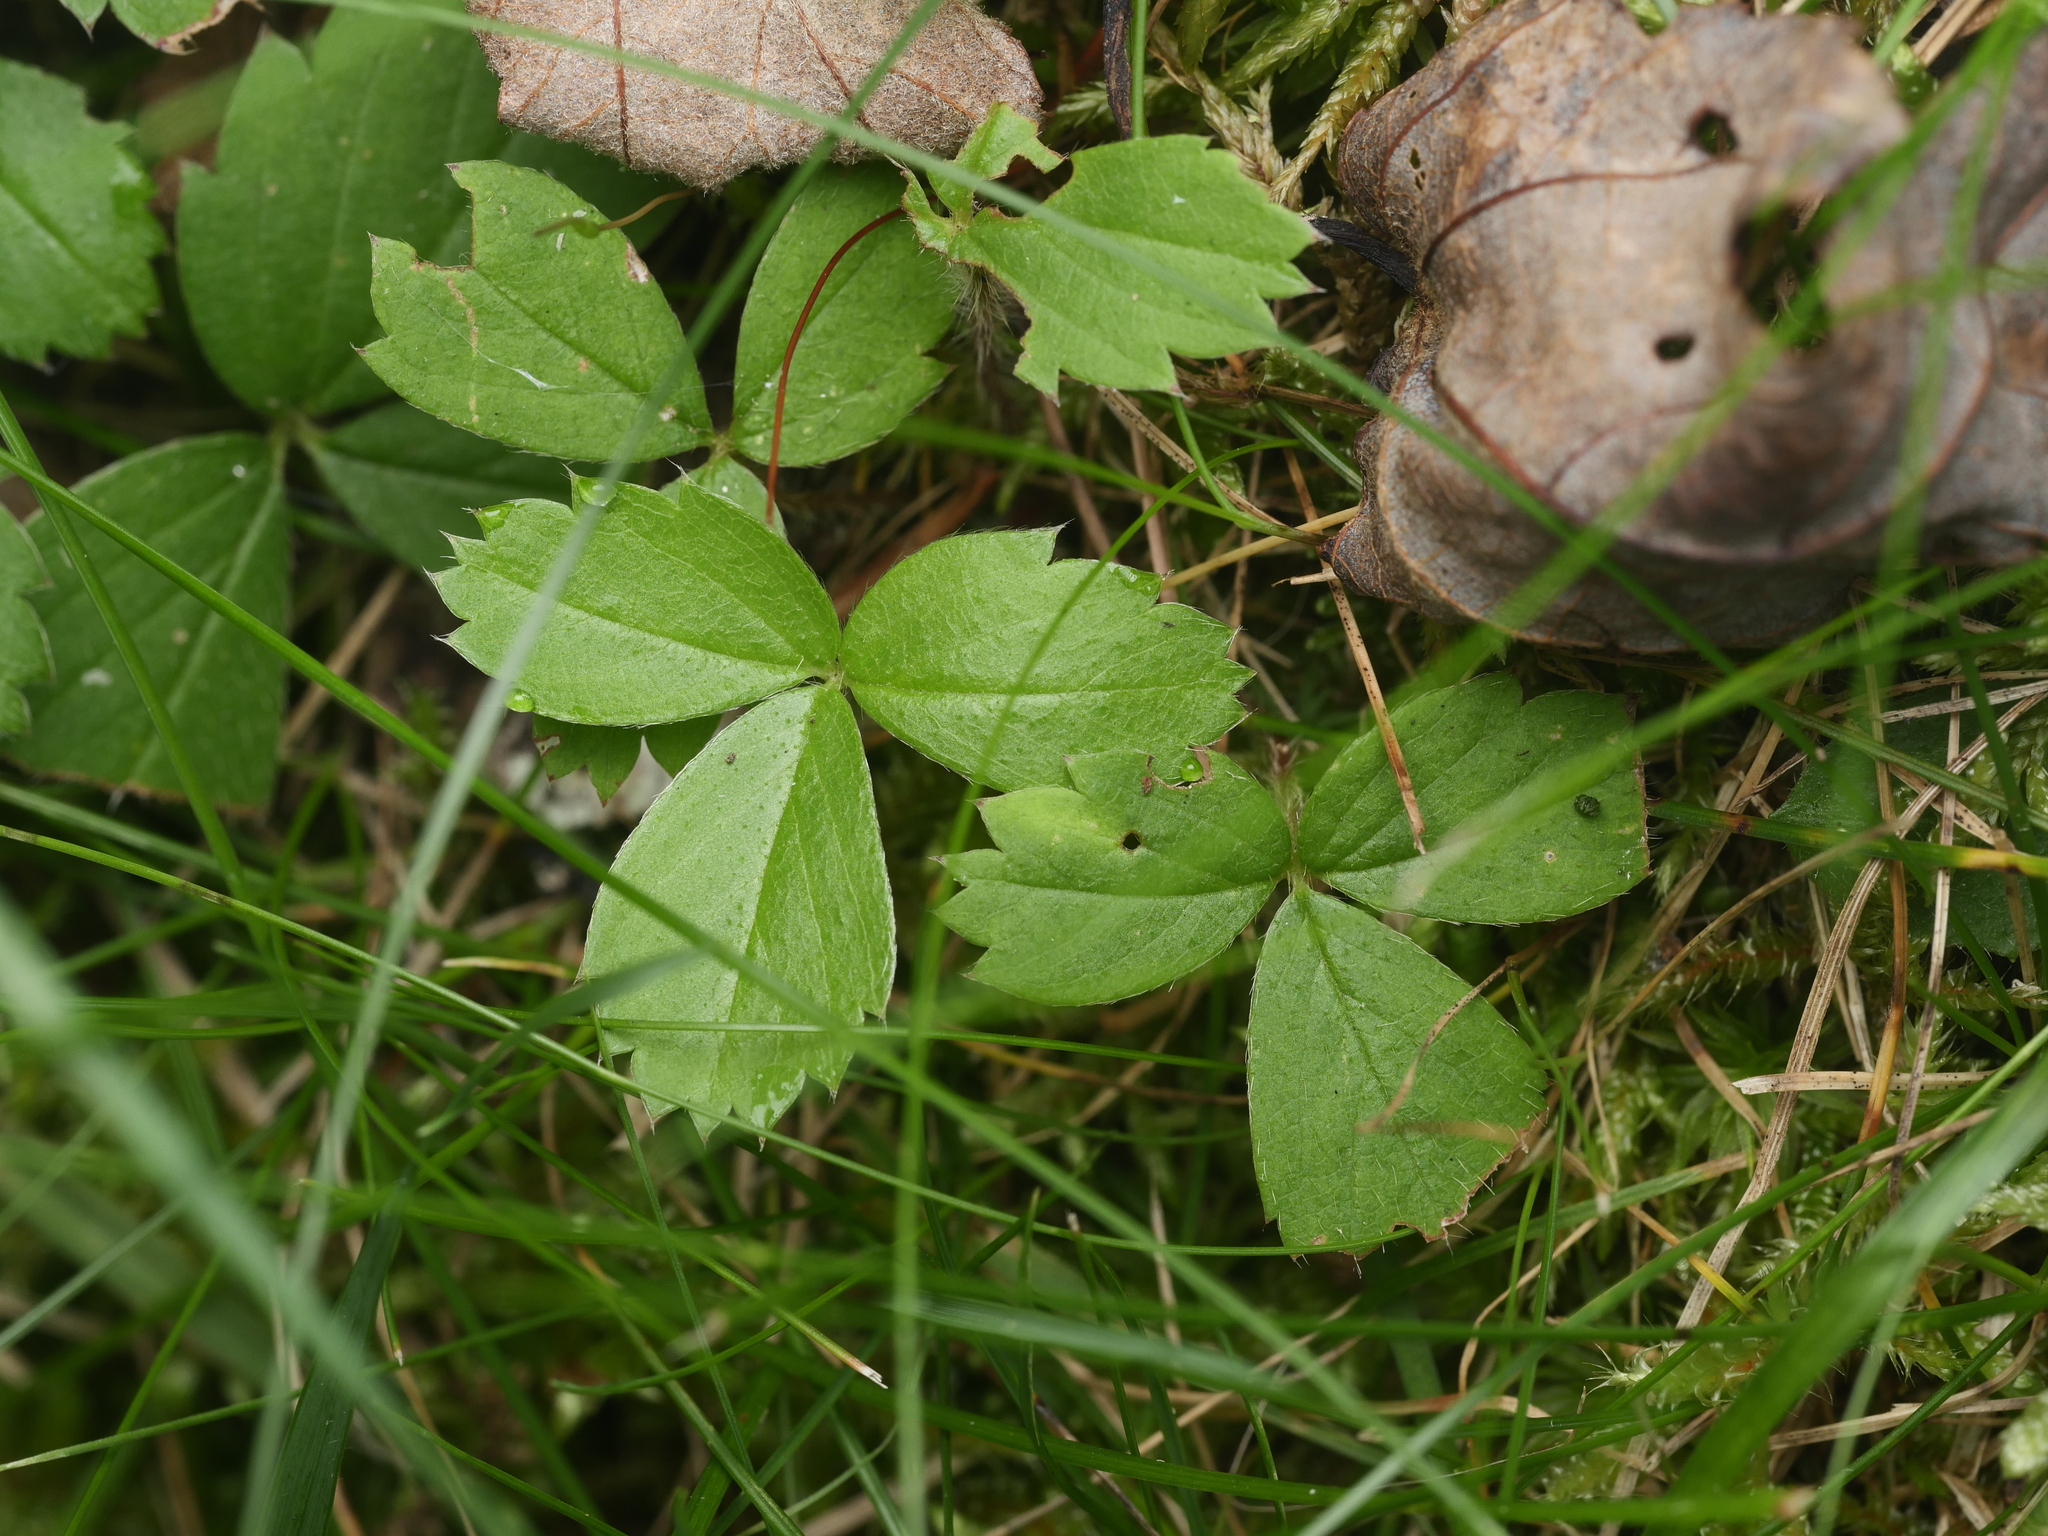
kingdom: Plantae
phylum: Tracheophyta
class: Magnoliopsida
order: Rosales
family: Rosaceae
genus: Fragaria
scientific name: Fragaria virginiana
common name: Thickleaved wild strawberry
